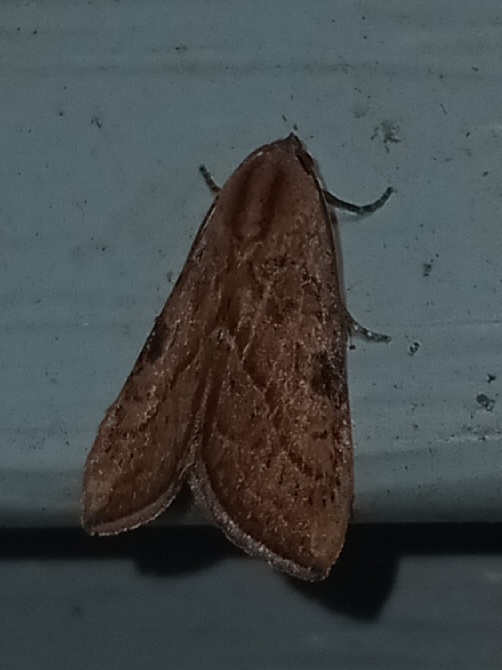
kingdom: Animalia
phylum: Arthropoda
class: Insecta
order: Lepidoptera
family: Noctuidae
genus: Galgula
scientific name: Galgula partita
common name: Wedgeling
